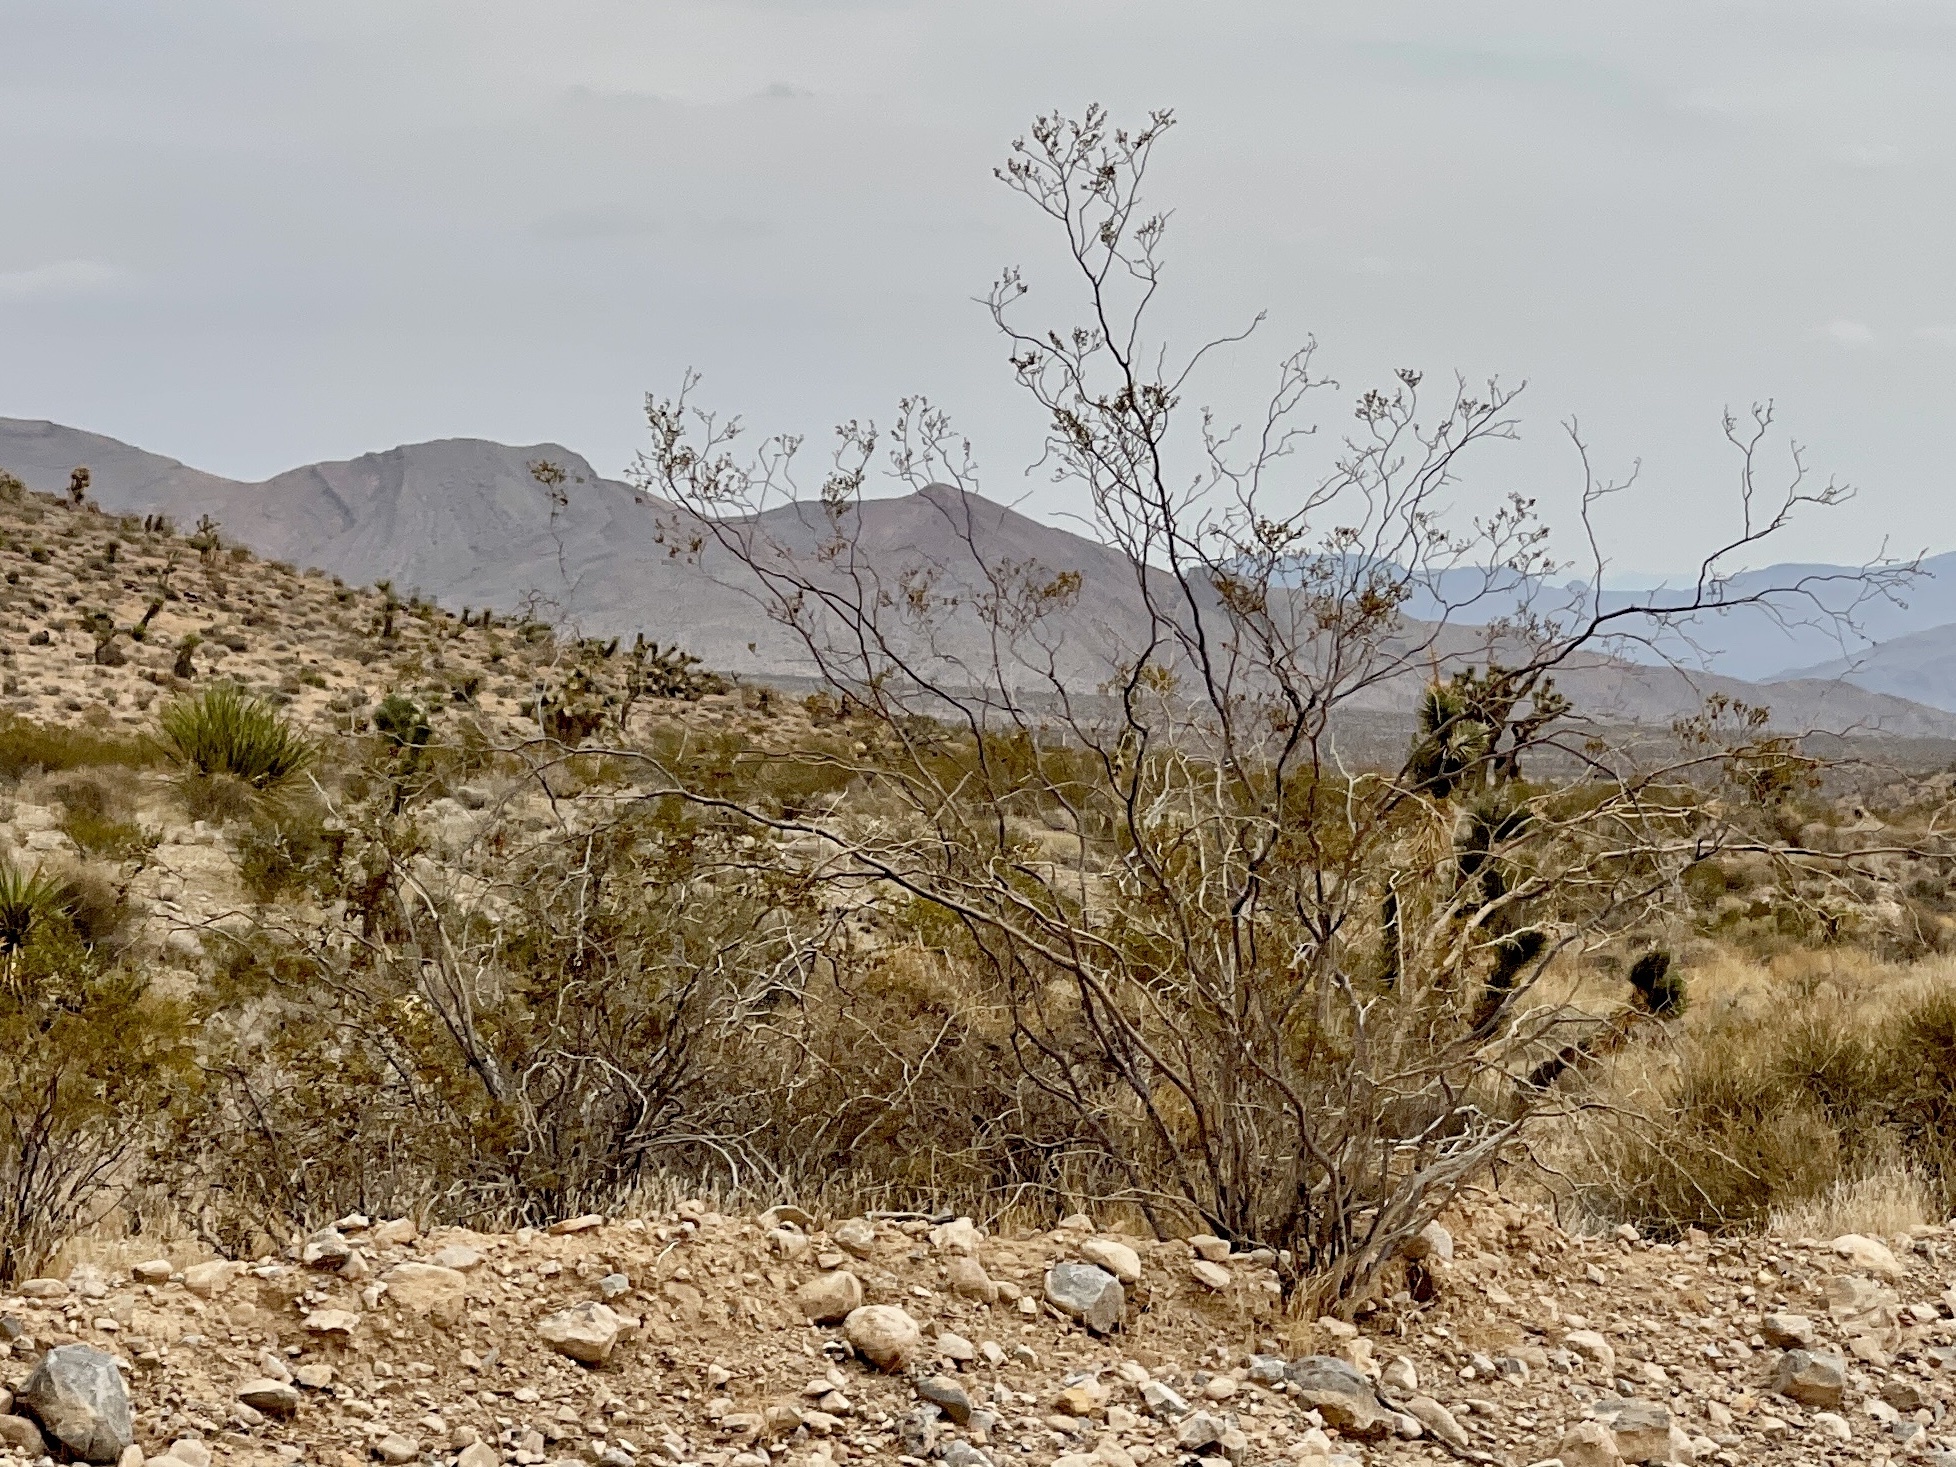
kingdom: Plantae
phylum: Tracheophyta
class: Magnoliopsida
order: Zygophyllales
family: Zygophyllaceae
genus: Larrea
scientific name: Larrea tridentata
